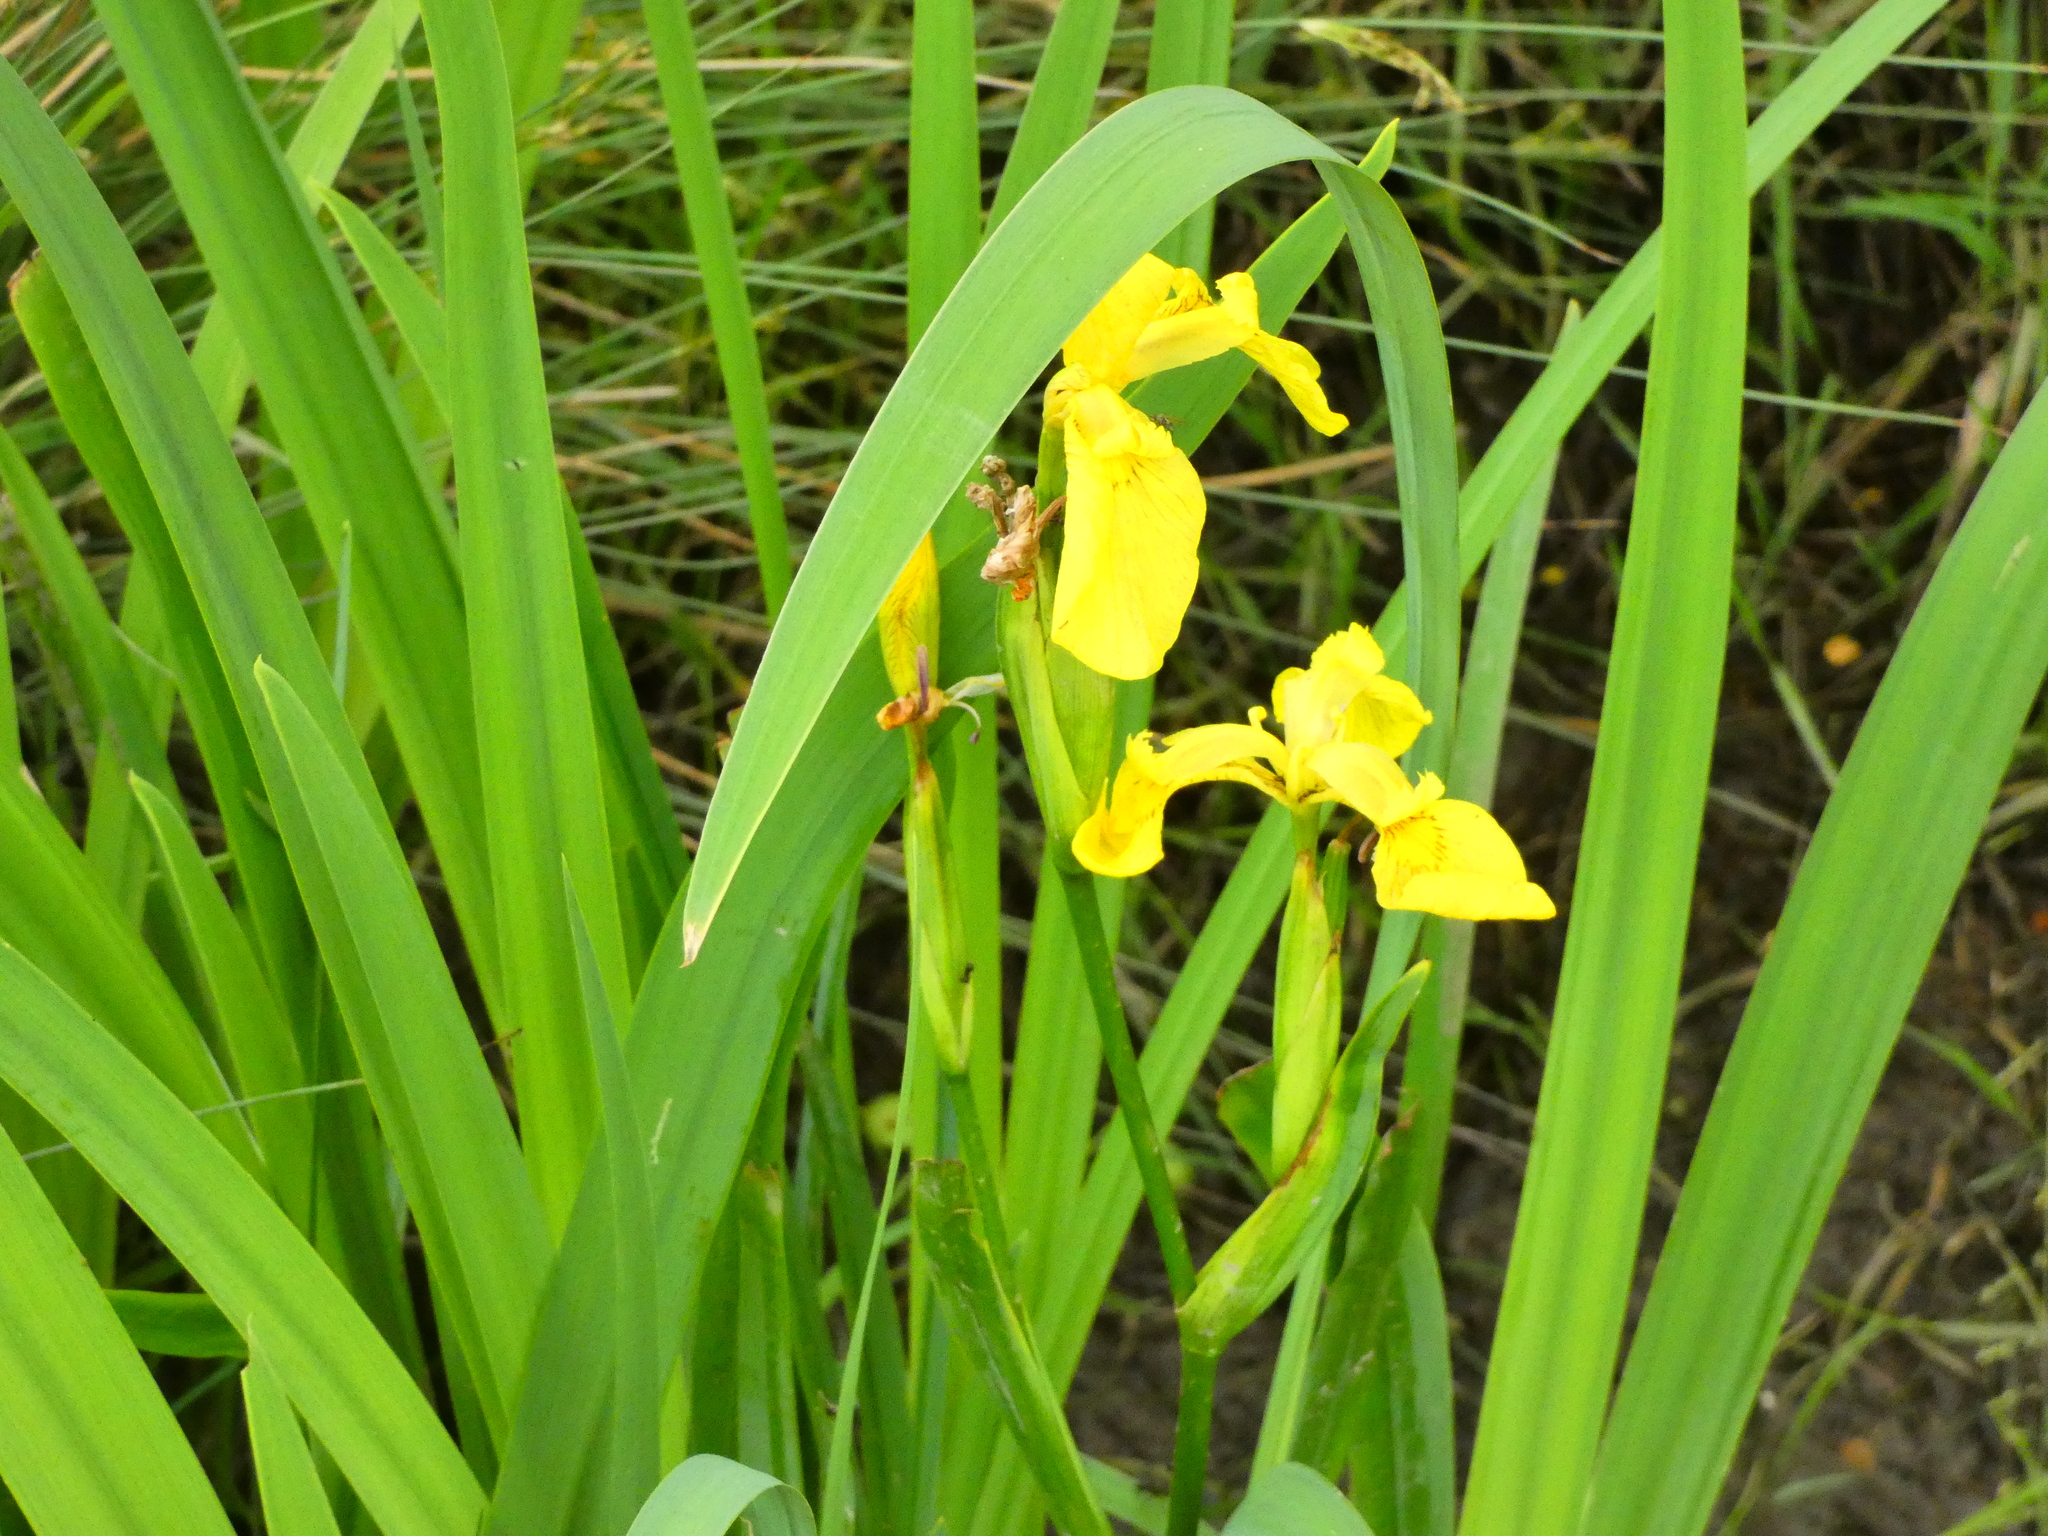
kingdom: Plantae
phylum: Tracheophyta
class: Liliopsida
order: Asparagales
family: Iridaceae
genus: Iris
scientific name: Iris pseudacorus
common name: Yellow flag
